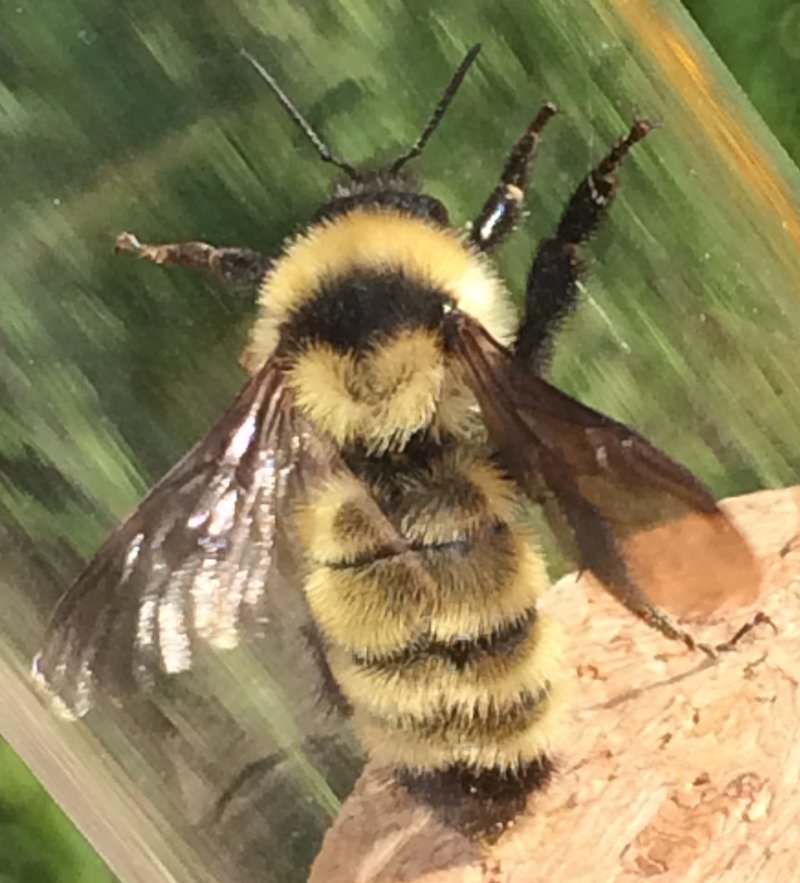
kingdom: Animalia
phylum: Arthropoda
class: Insecta
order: Hymenoptera
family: Apidae
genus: Bombus
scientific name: Bombus fervidus
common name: Yellow bumble bee
